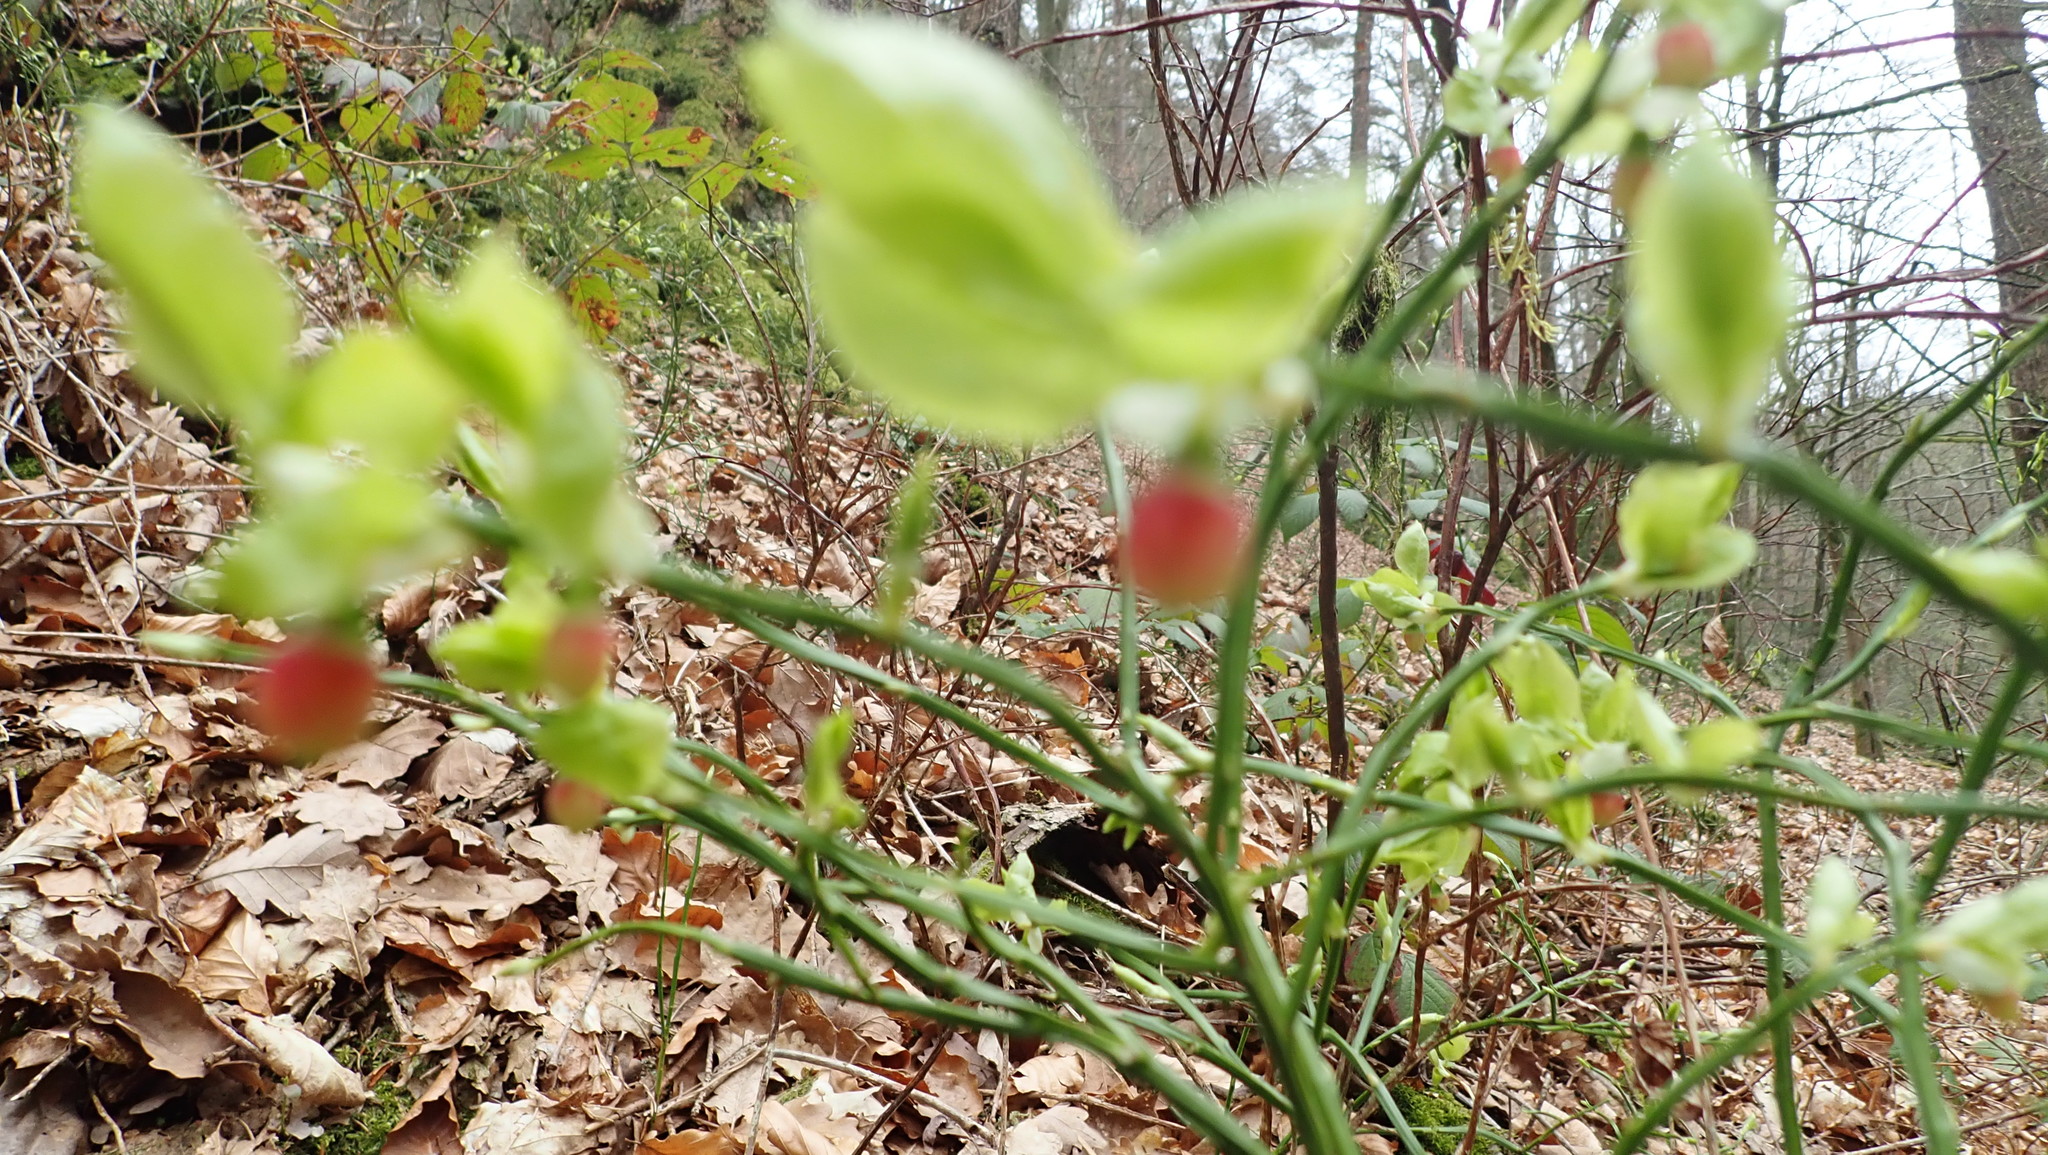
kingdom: Plantae
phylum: Tracheophyta
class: Magnoliopsida
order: Ericales
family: Ericaceae
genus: Vaccinium
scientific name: Vaccinium myrtillus
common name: Bilberry
